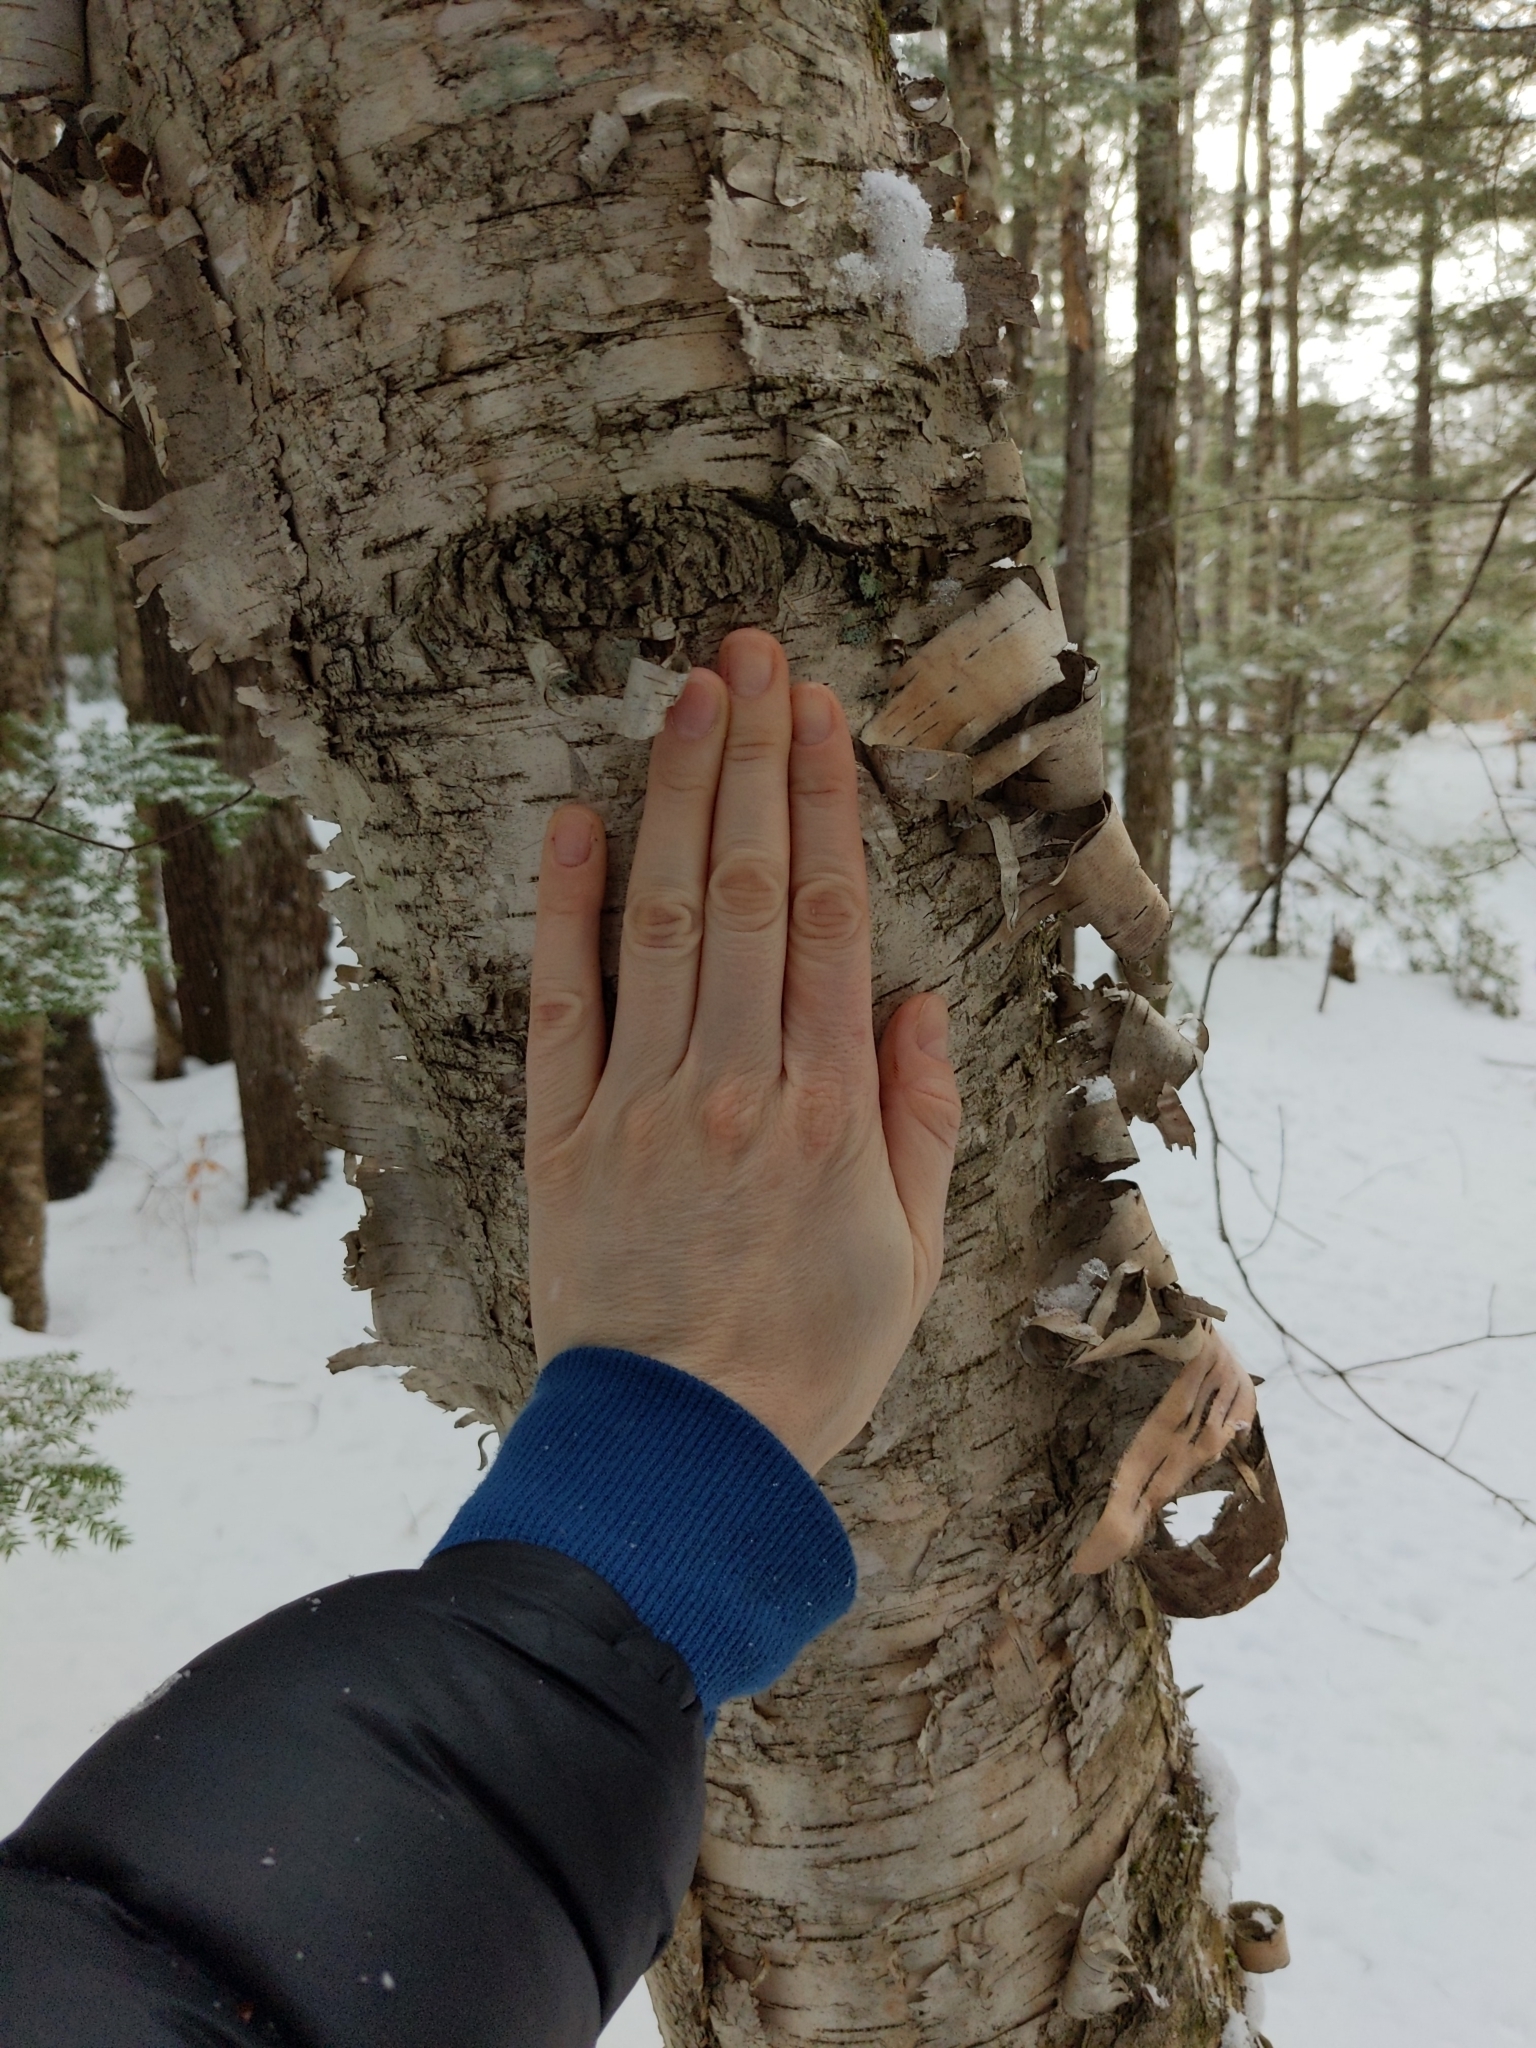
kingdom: Plantae
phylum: Tracheophyta
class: Magnoliopsida
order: Fagales
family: Betulaceae
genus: Betula
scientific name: Betula papyrifera
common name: Paper birch
